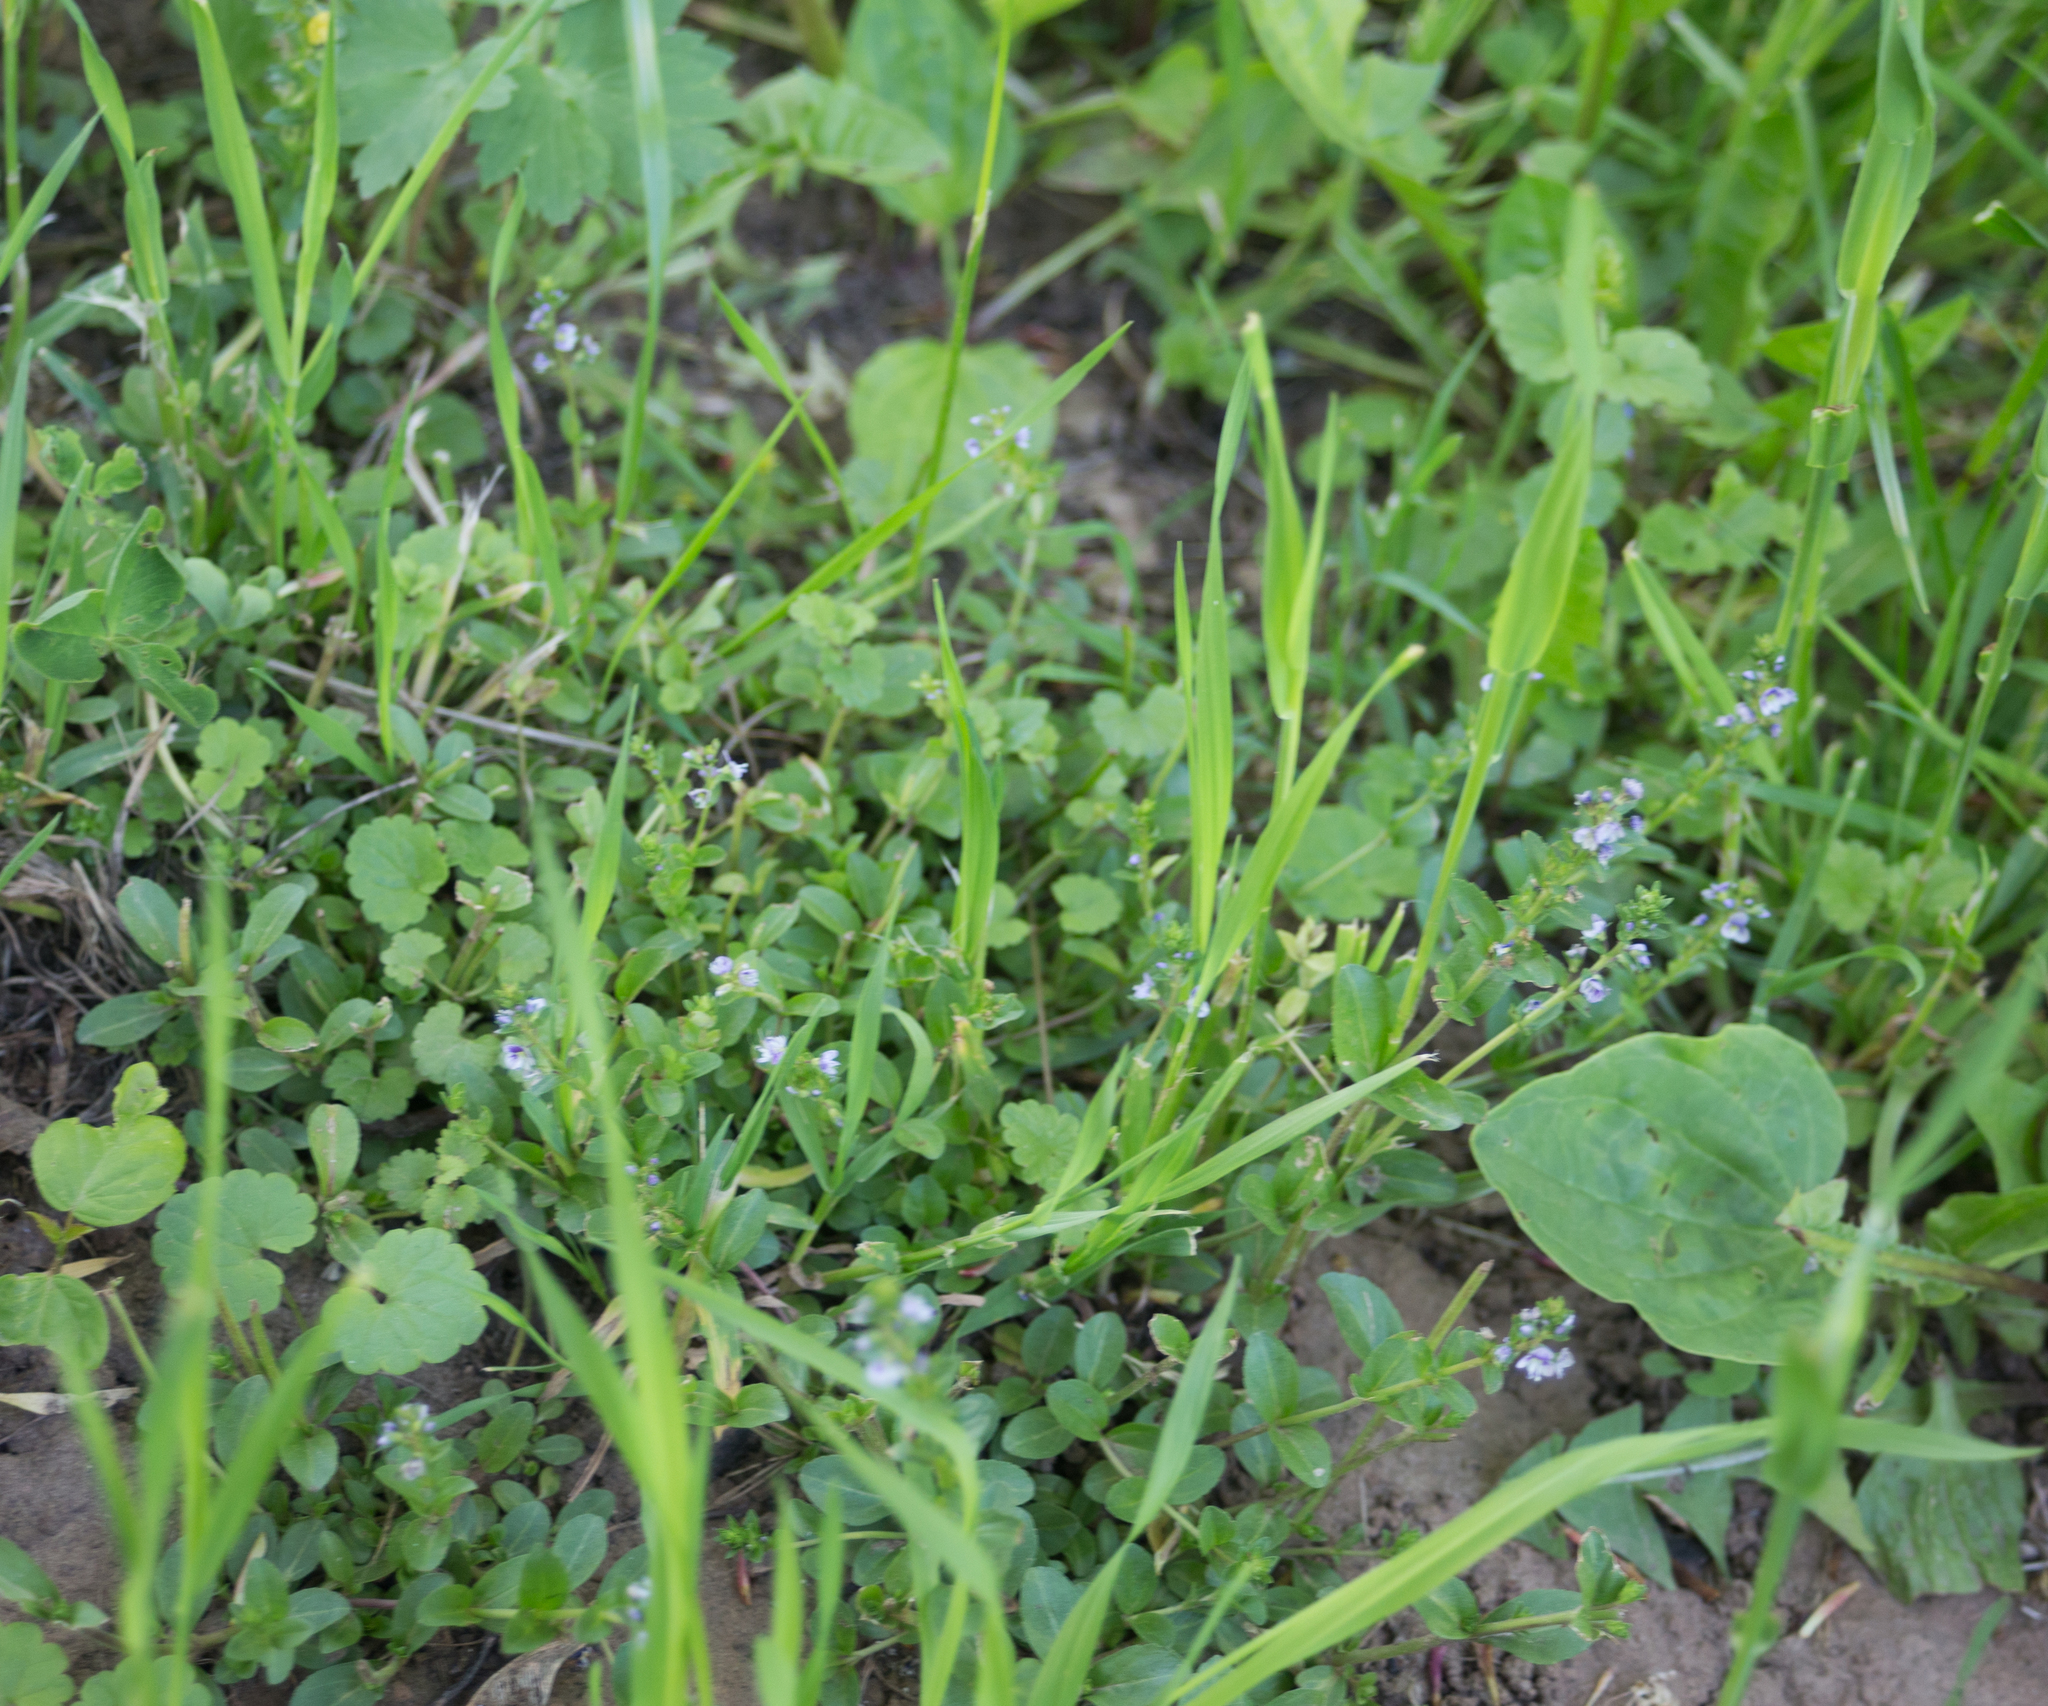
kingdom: Plantae
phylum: Tracheophyta
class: Magnoliopsida
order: Lamiales
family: Plantaginaceae
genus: Veronica
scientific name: Veronica serpyllifolia
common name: Thyme-leaved speedwell
